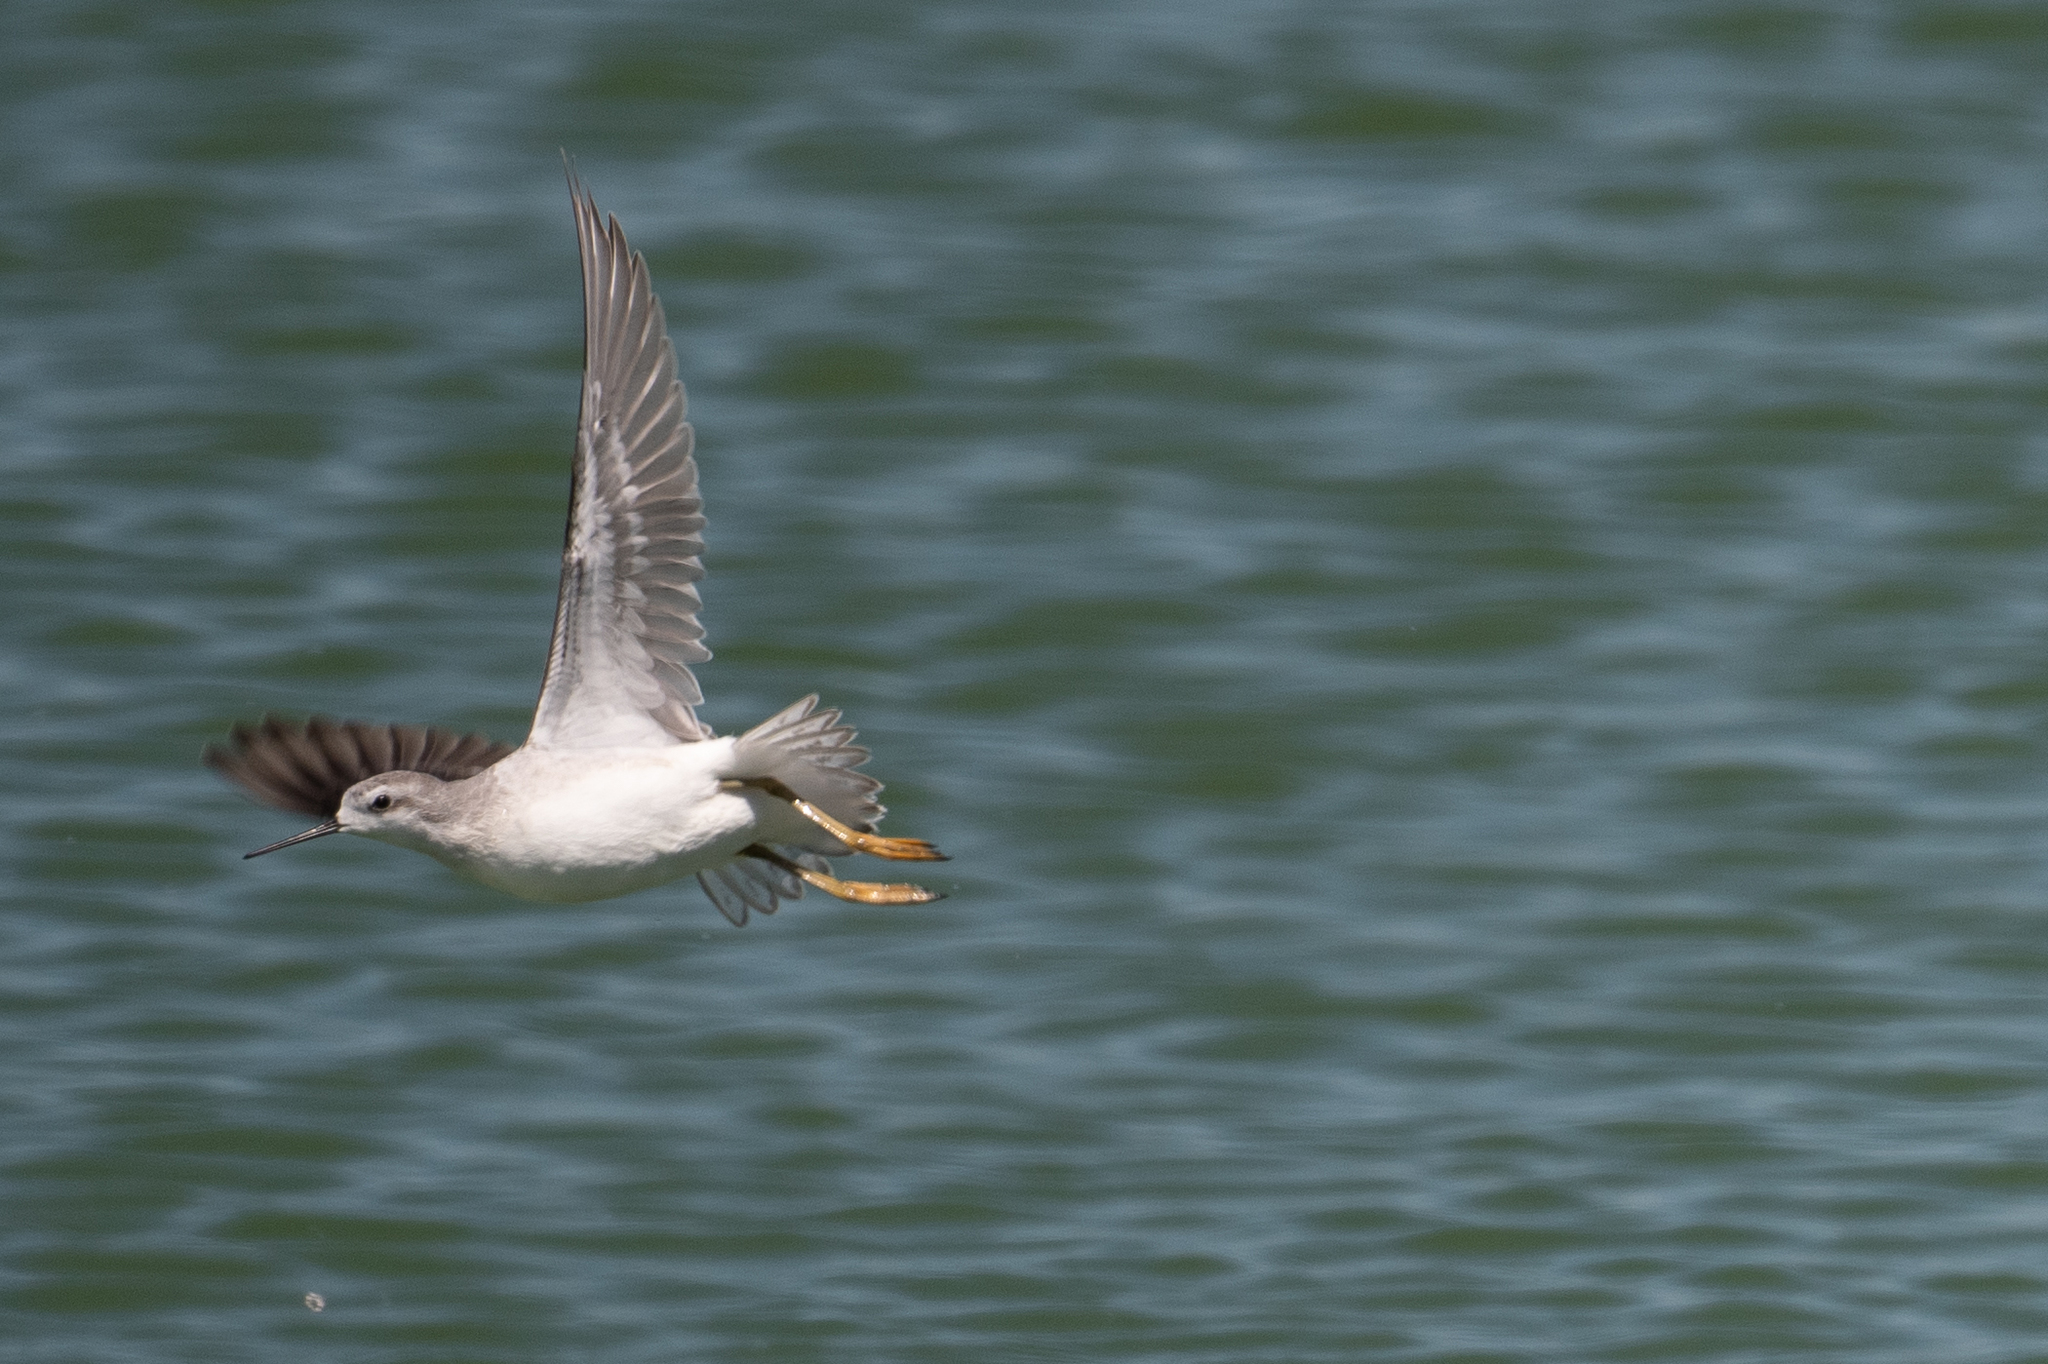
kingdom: Animalia
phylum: Chordata
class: Aves
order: Charadriiformes
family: Scolopacidae
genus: Phalaropus
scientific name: Phalaropus tricolor
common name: Wilson's phalarope
